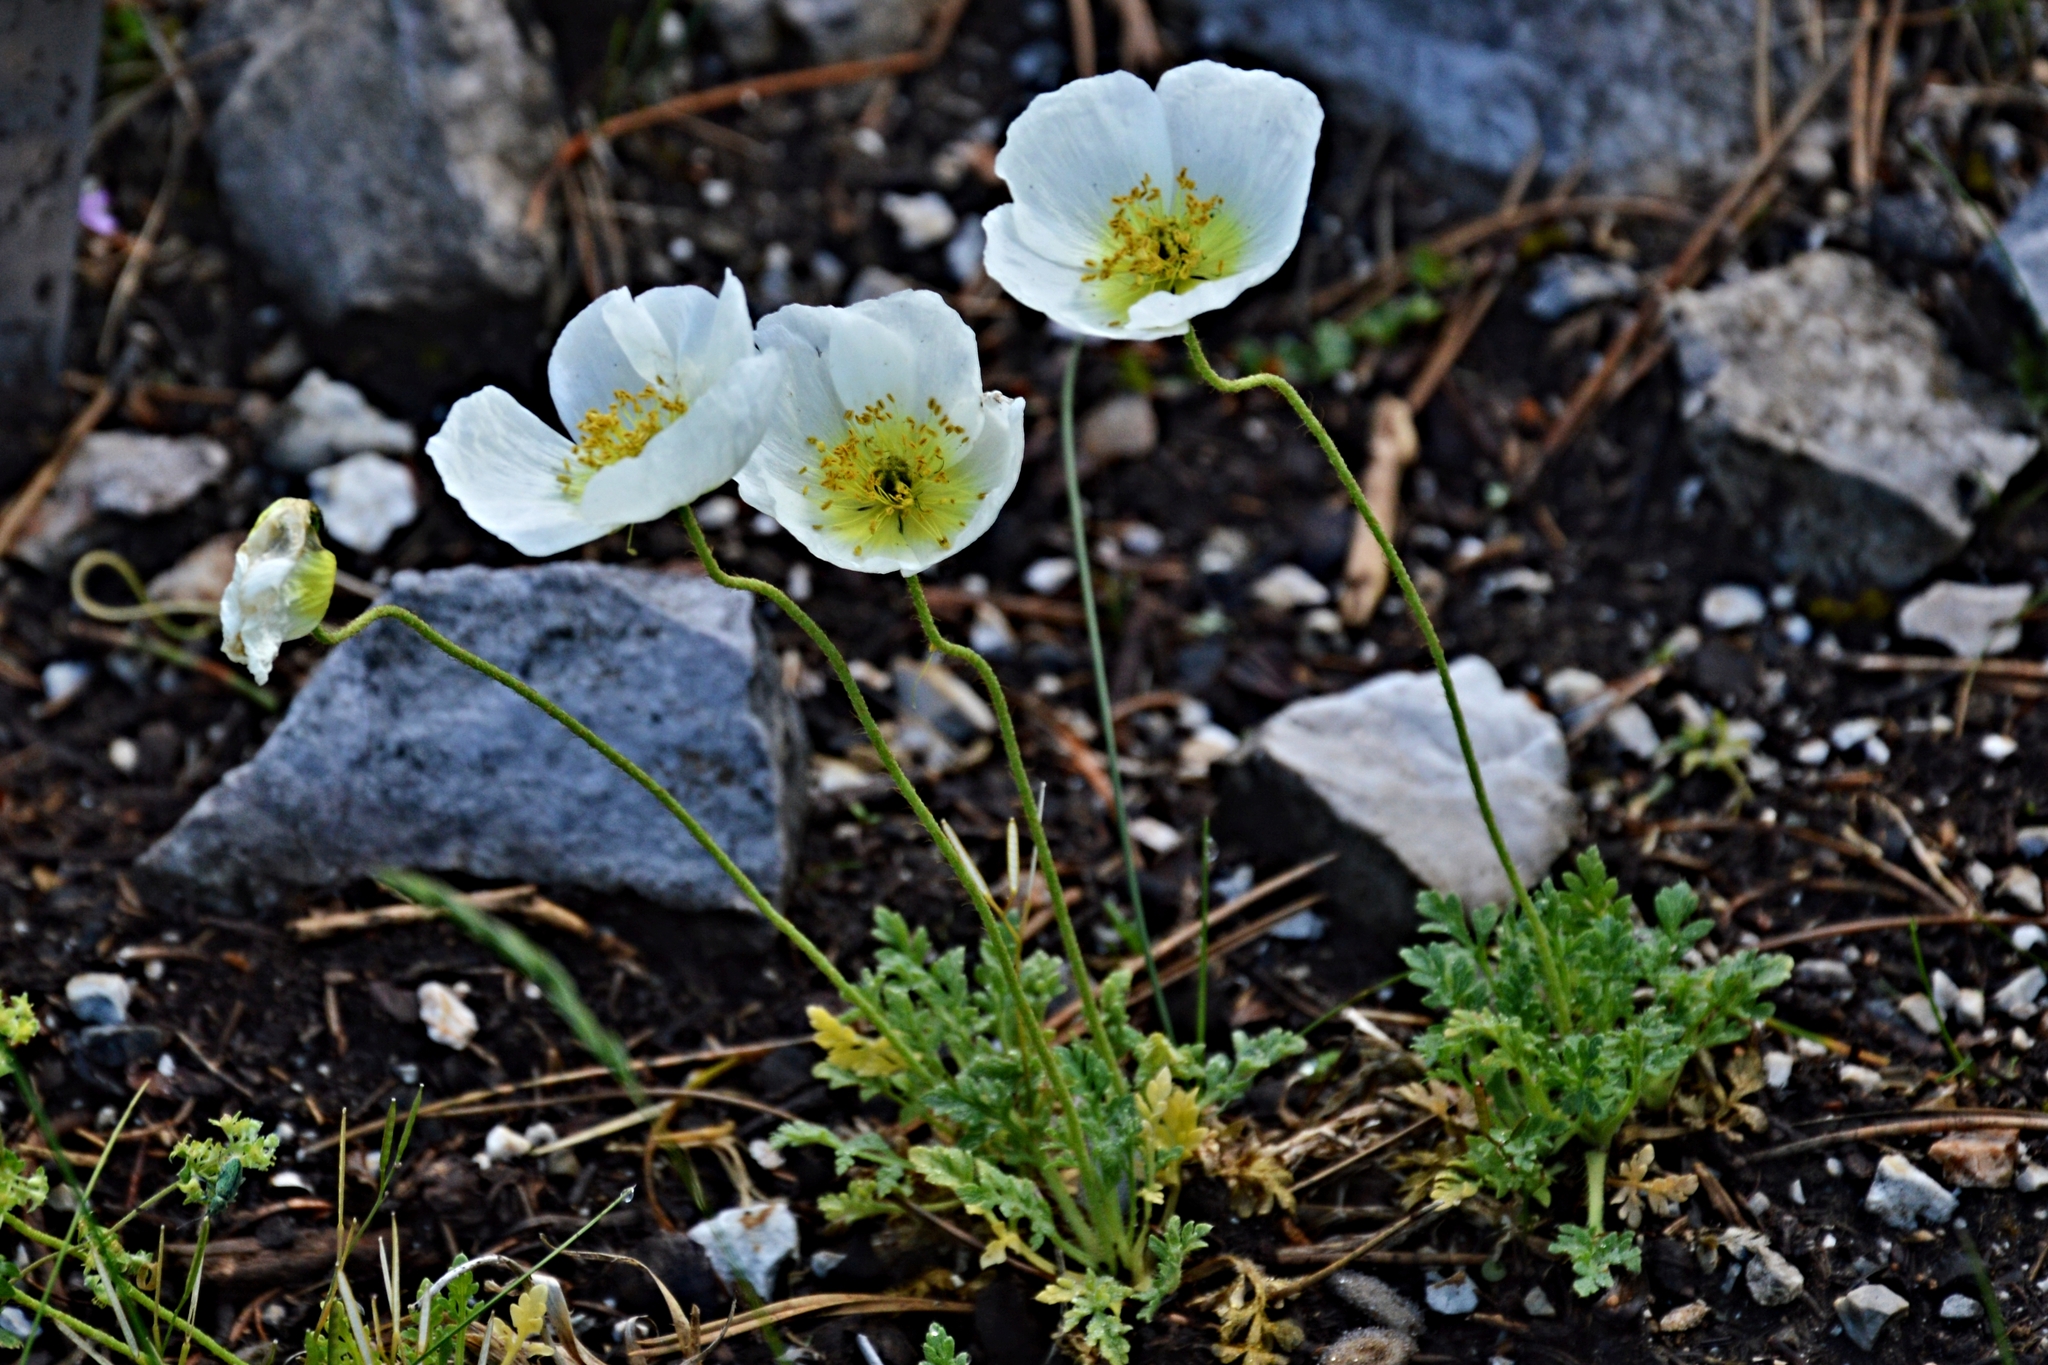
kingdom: Plantae
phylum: Tracheophyta
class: Magnoliopsida
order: Ranunculales
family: Papaveraceae
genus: Papaver
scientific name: Papaver alpinum
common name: Austrian poppy
